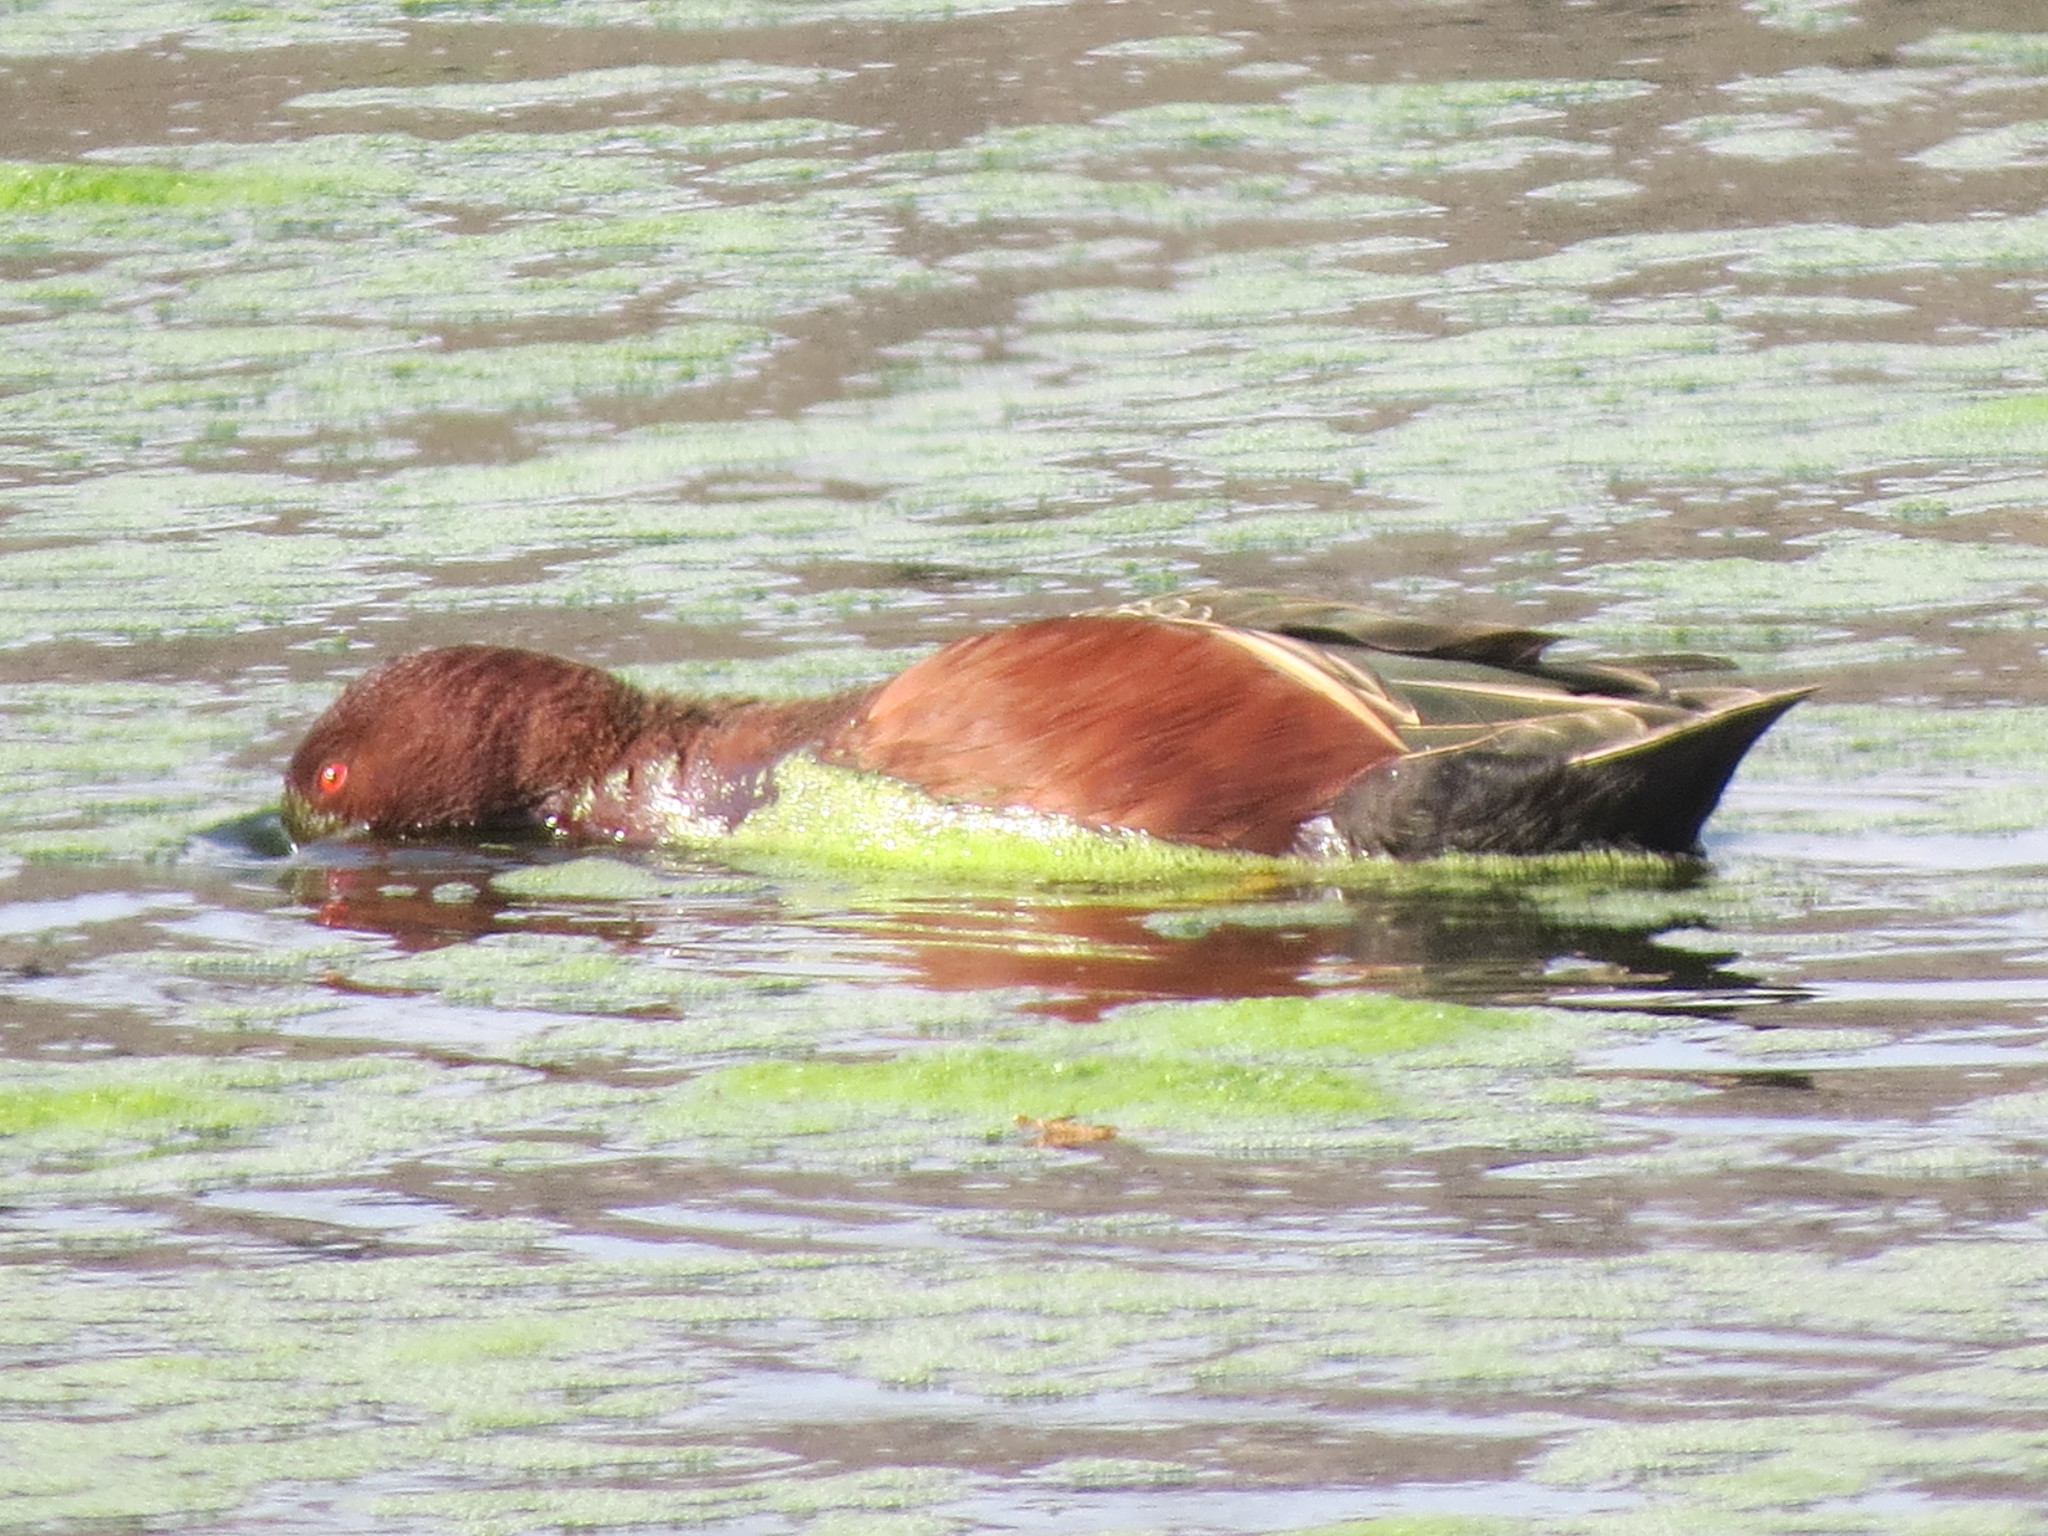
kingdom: Animalia
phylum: Chordata
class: Aves
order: Anseriformes
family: Anatidae
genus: Spatula
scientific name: Spatula cyanoptera
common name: Cinnamon teal
